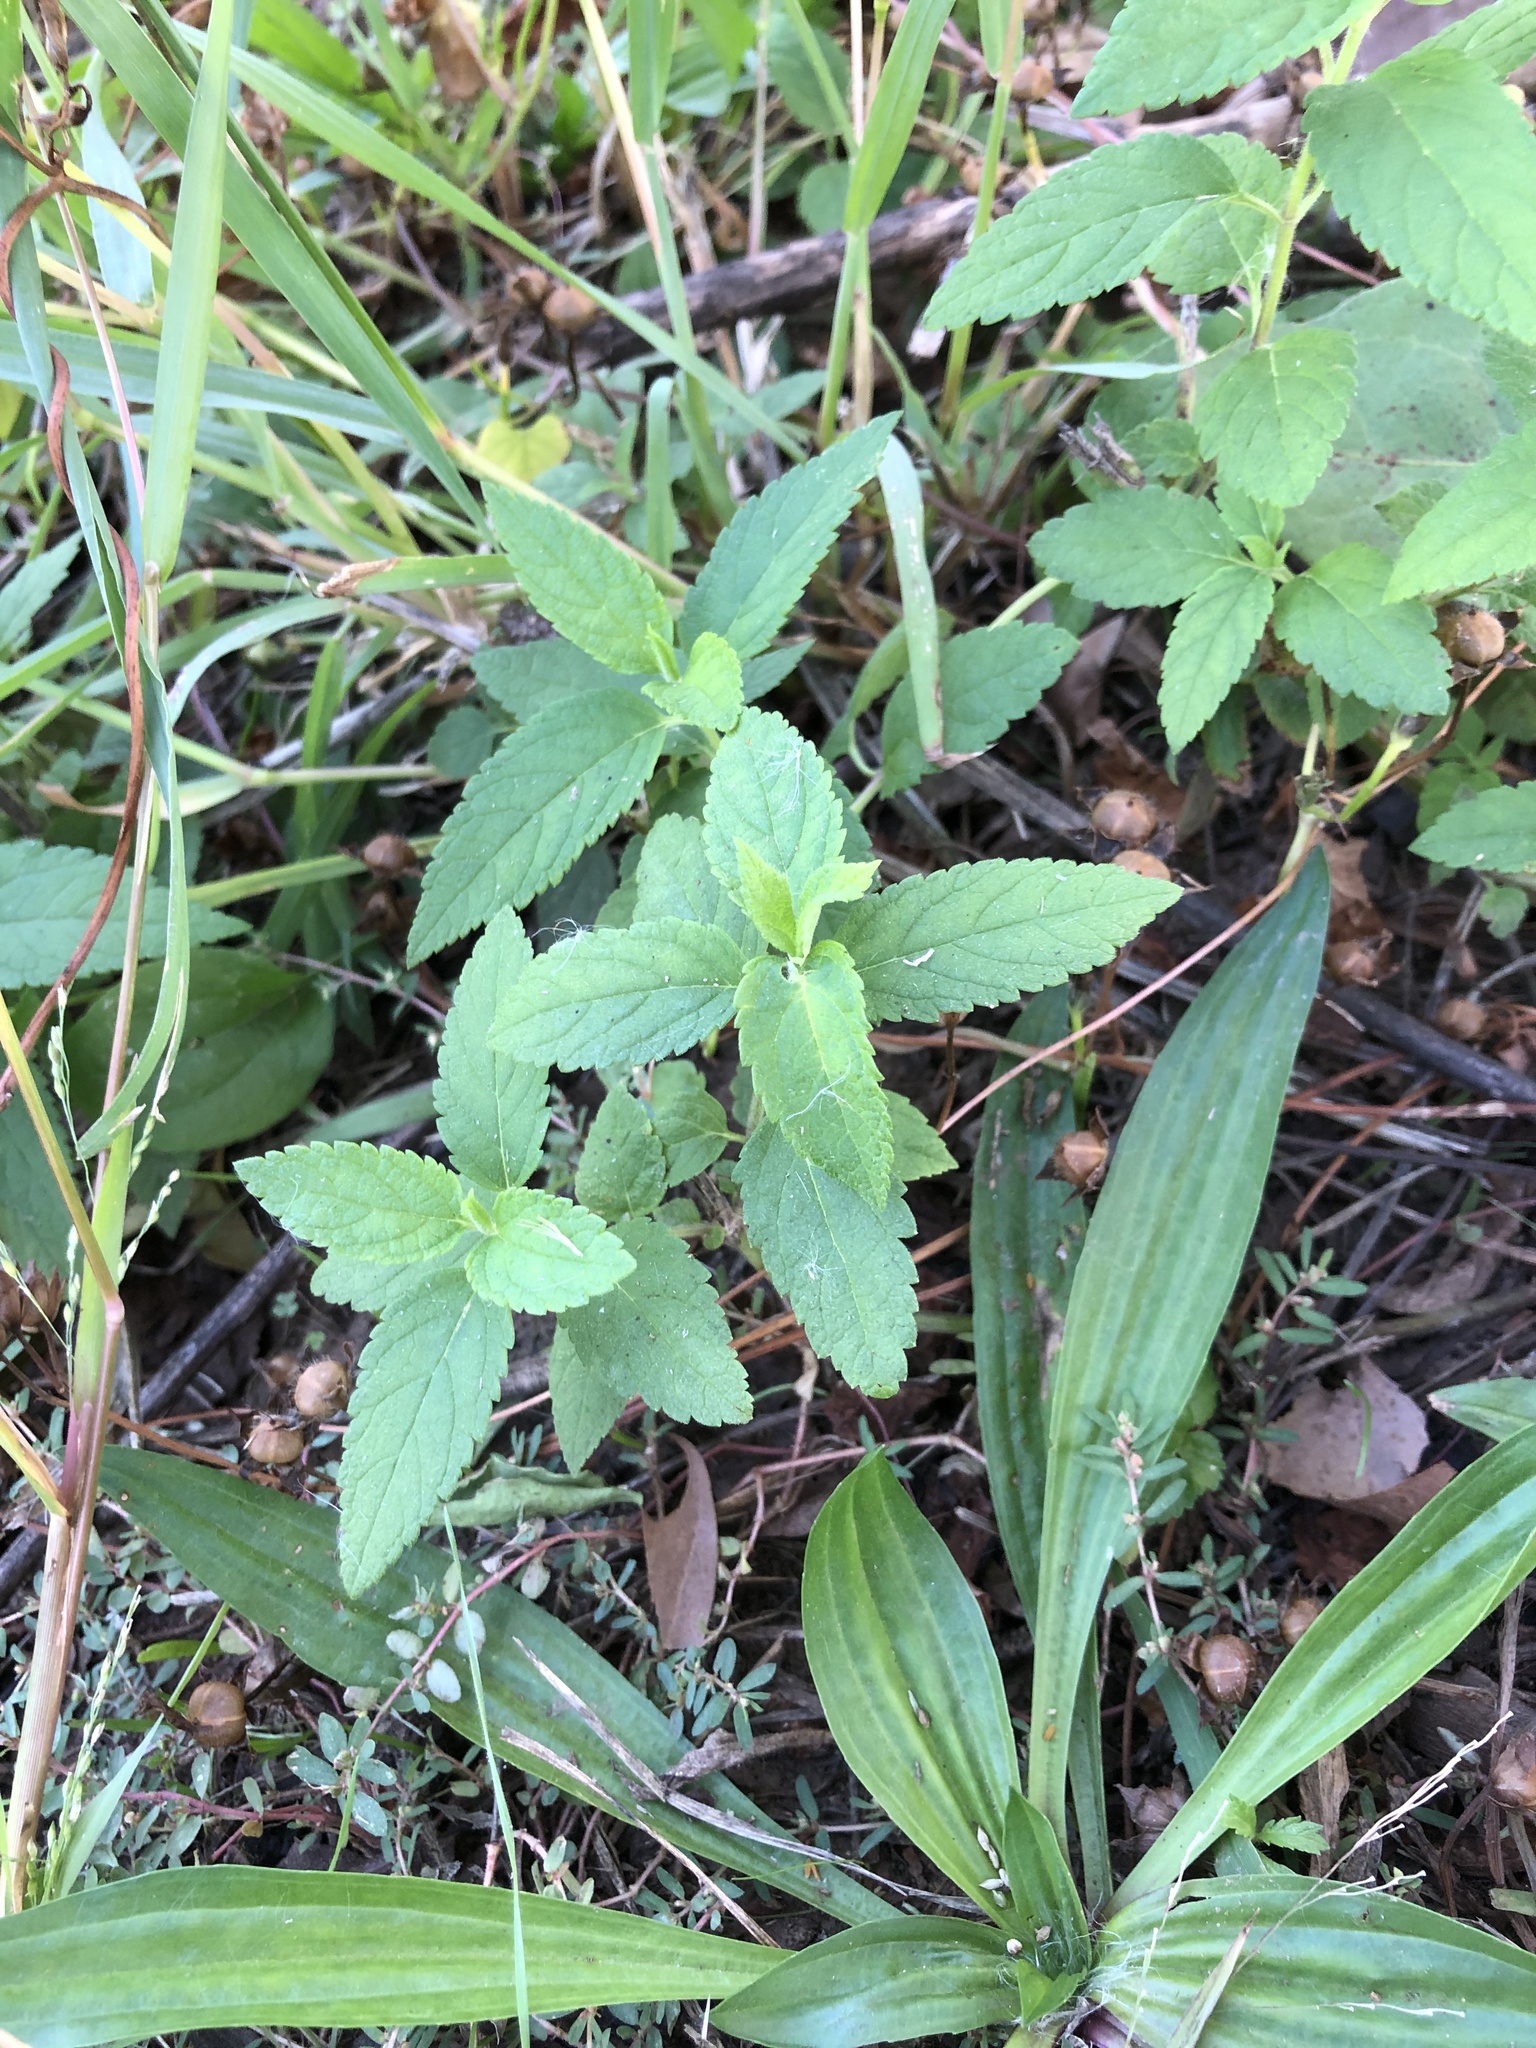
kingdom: Plantae
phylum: Tracheophyta
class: Magnoliopsida
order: Lamiales
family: Lamiaceae
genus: Teucrium
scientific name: Teucrium canadense
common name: American germander
